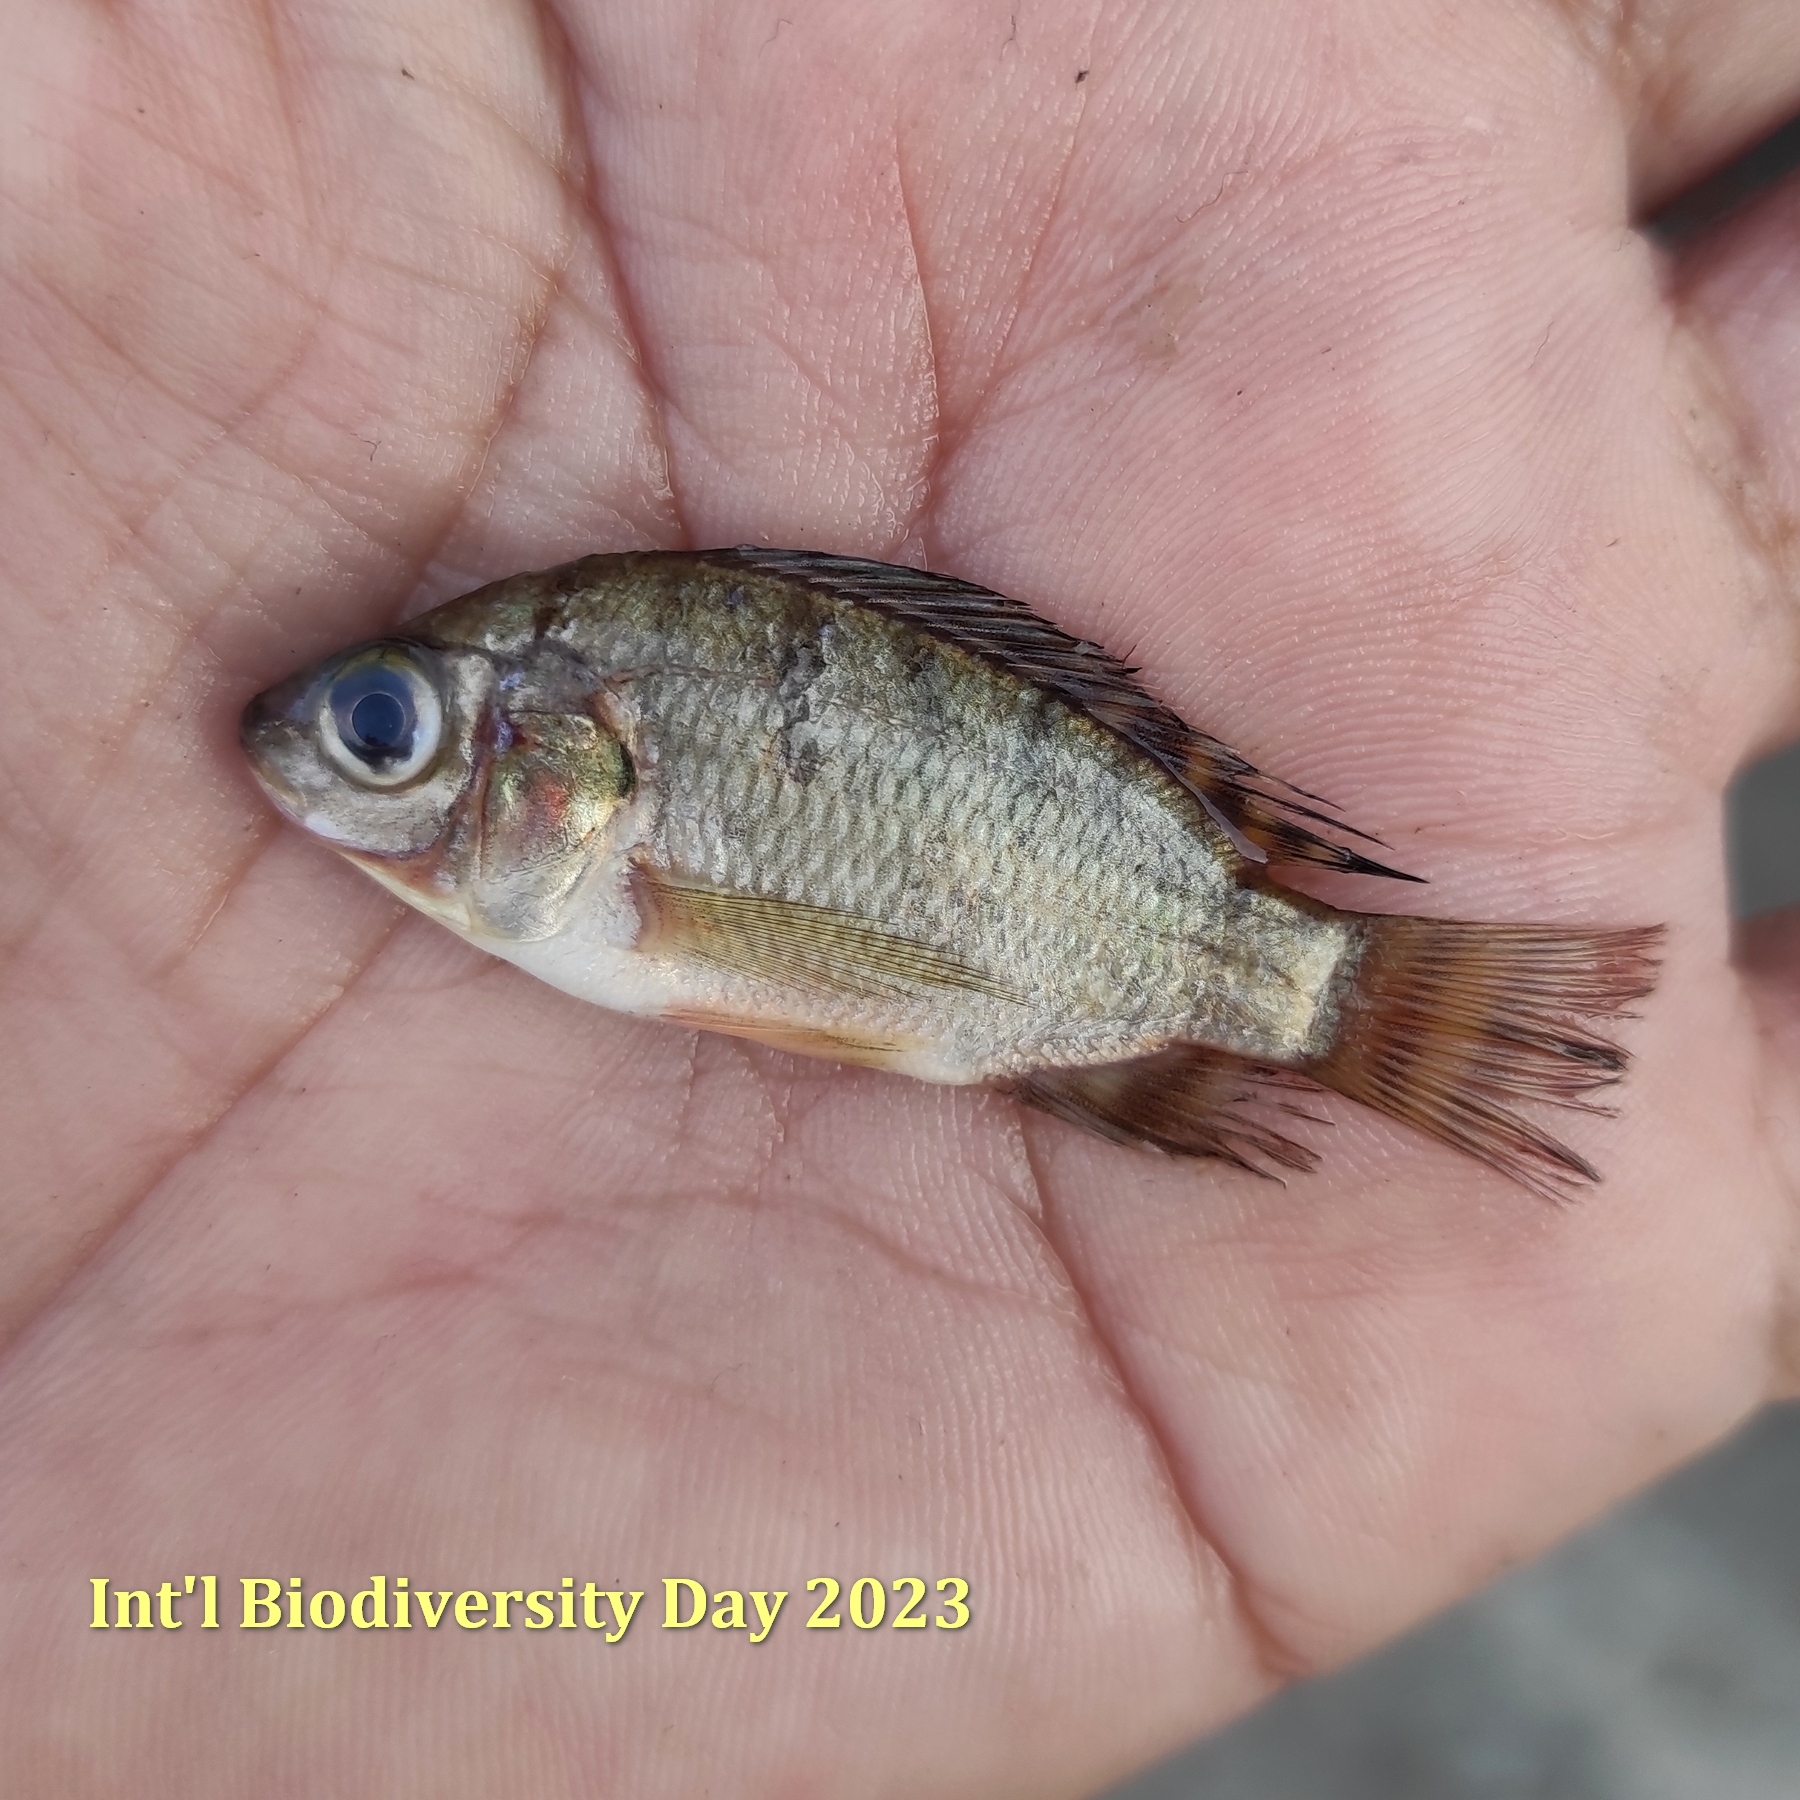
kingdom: Animalia
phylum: Chordata
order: Perciformes
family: Cichlidae
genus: Oreochromis
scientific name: Oreochromis niloticus
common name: Nile tilapia
